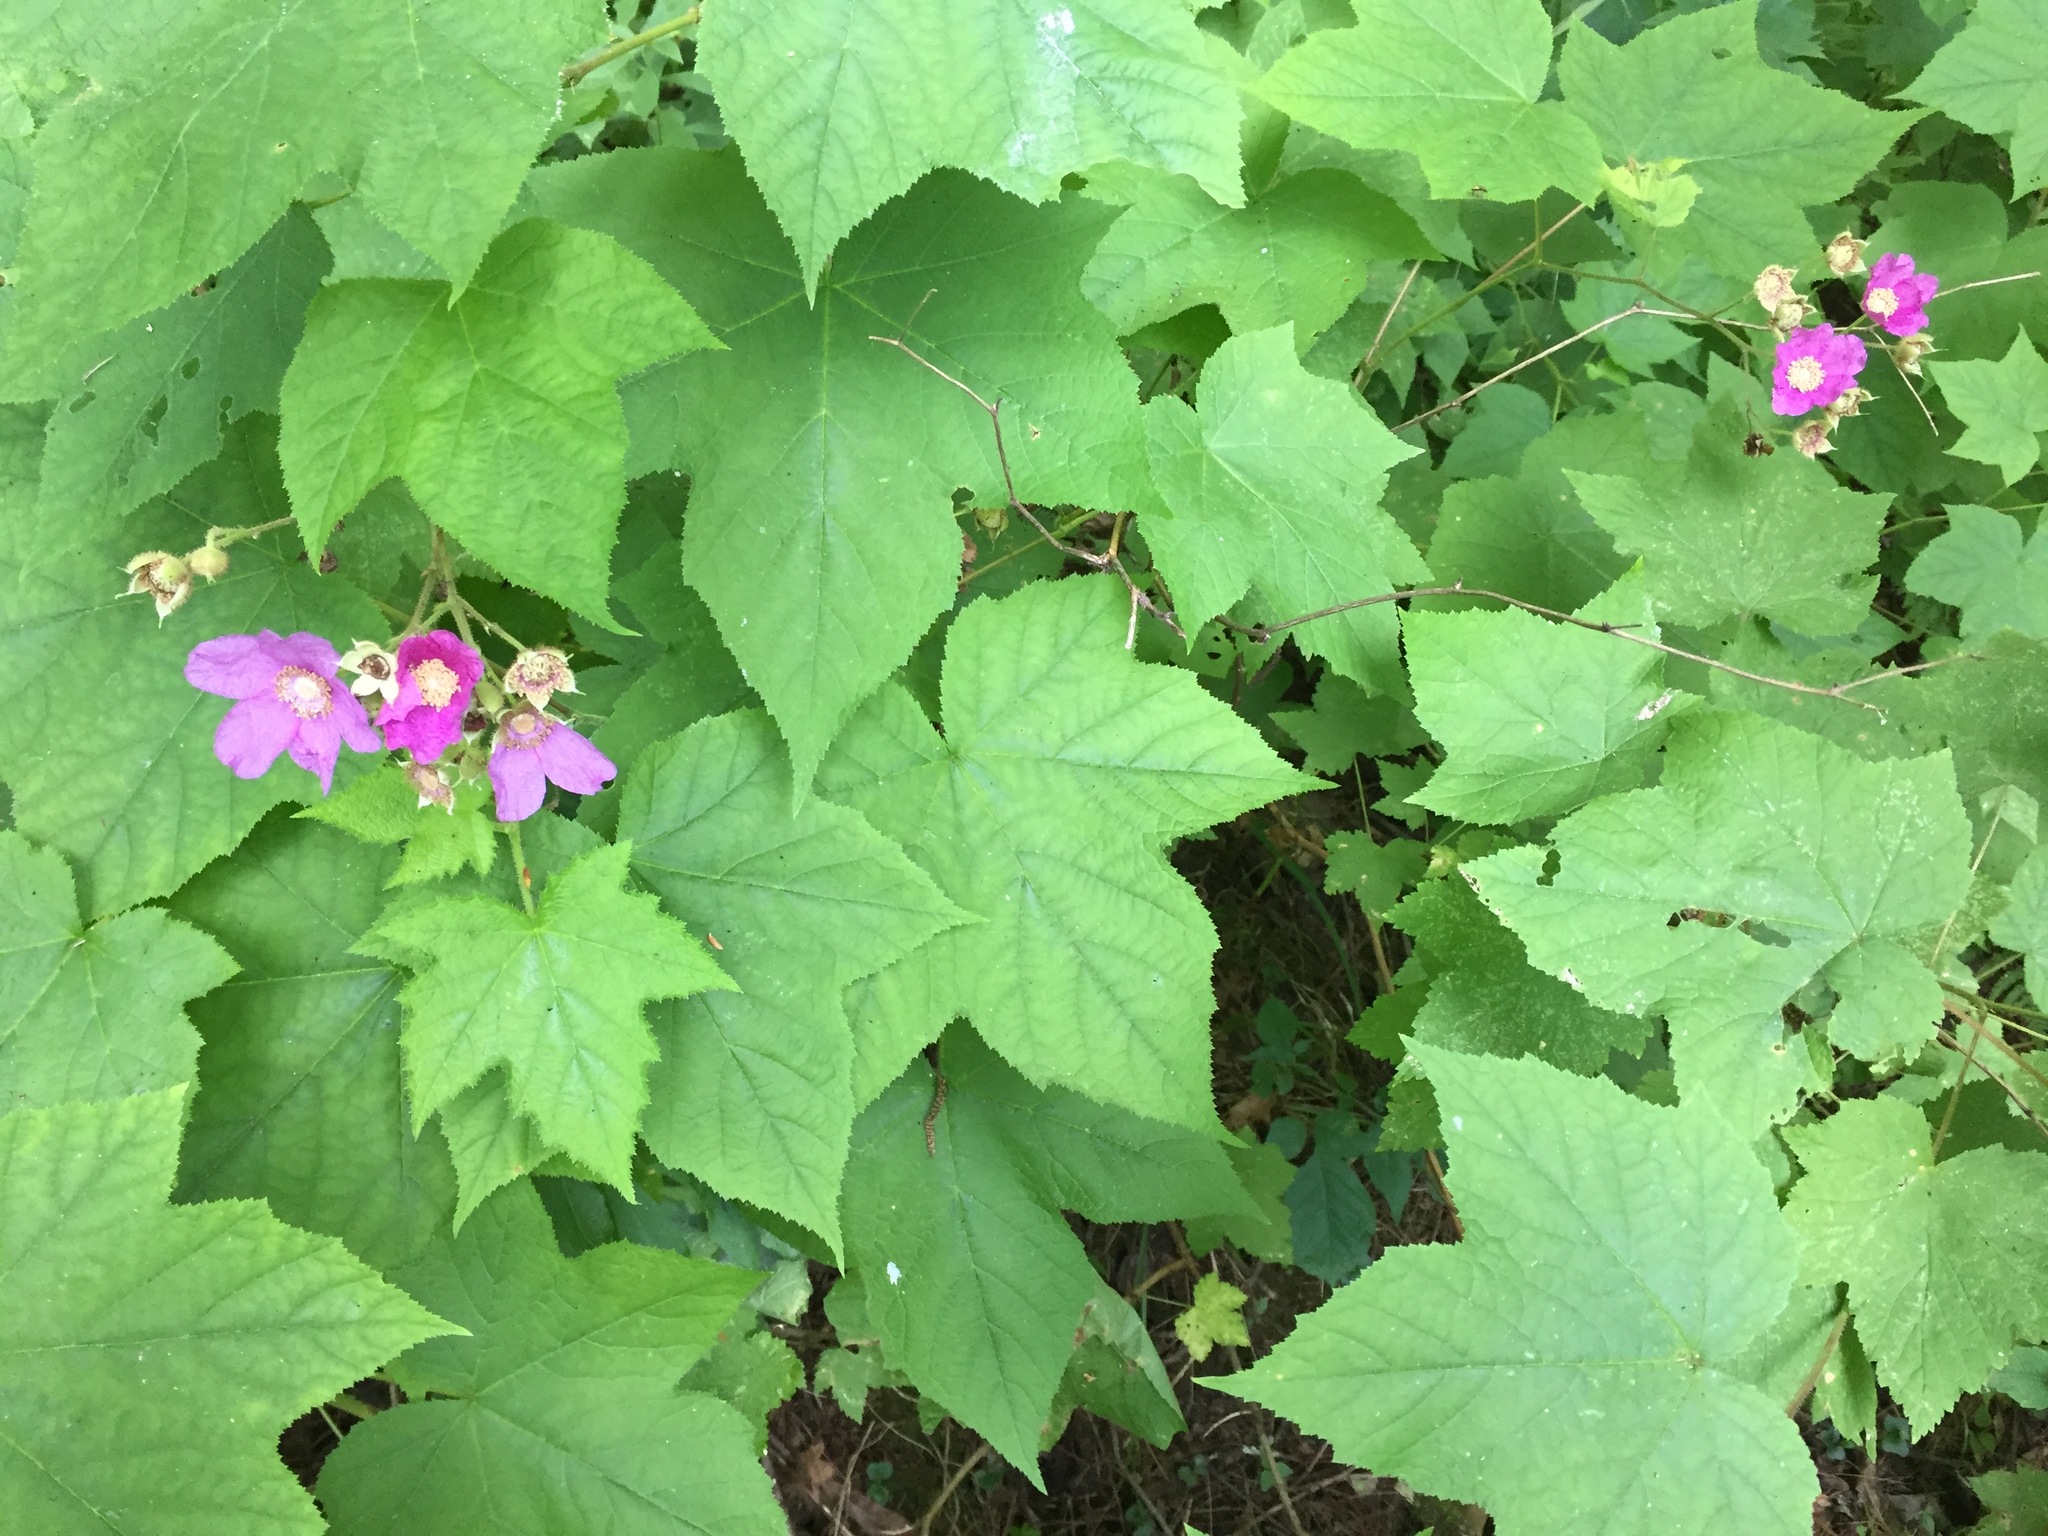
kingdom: Plantae
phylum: Tracheophyta
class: Magnoliopsida
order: Rosales
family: Rosaceae
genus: Rubus
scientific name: Rubus odoratus
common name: Purple-flowered raspberry
